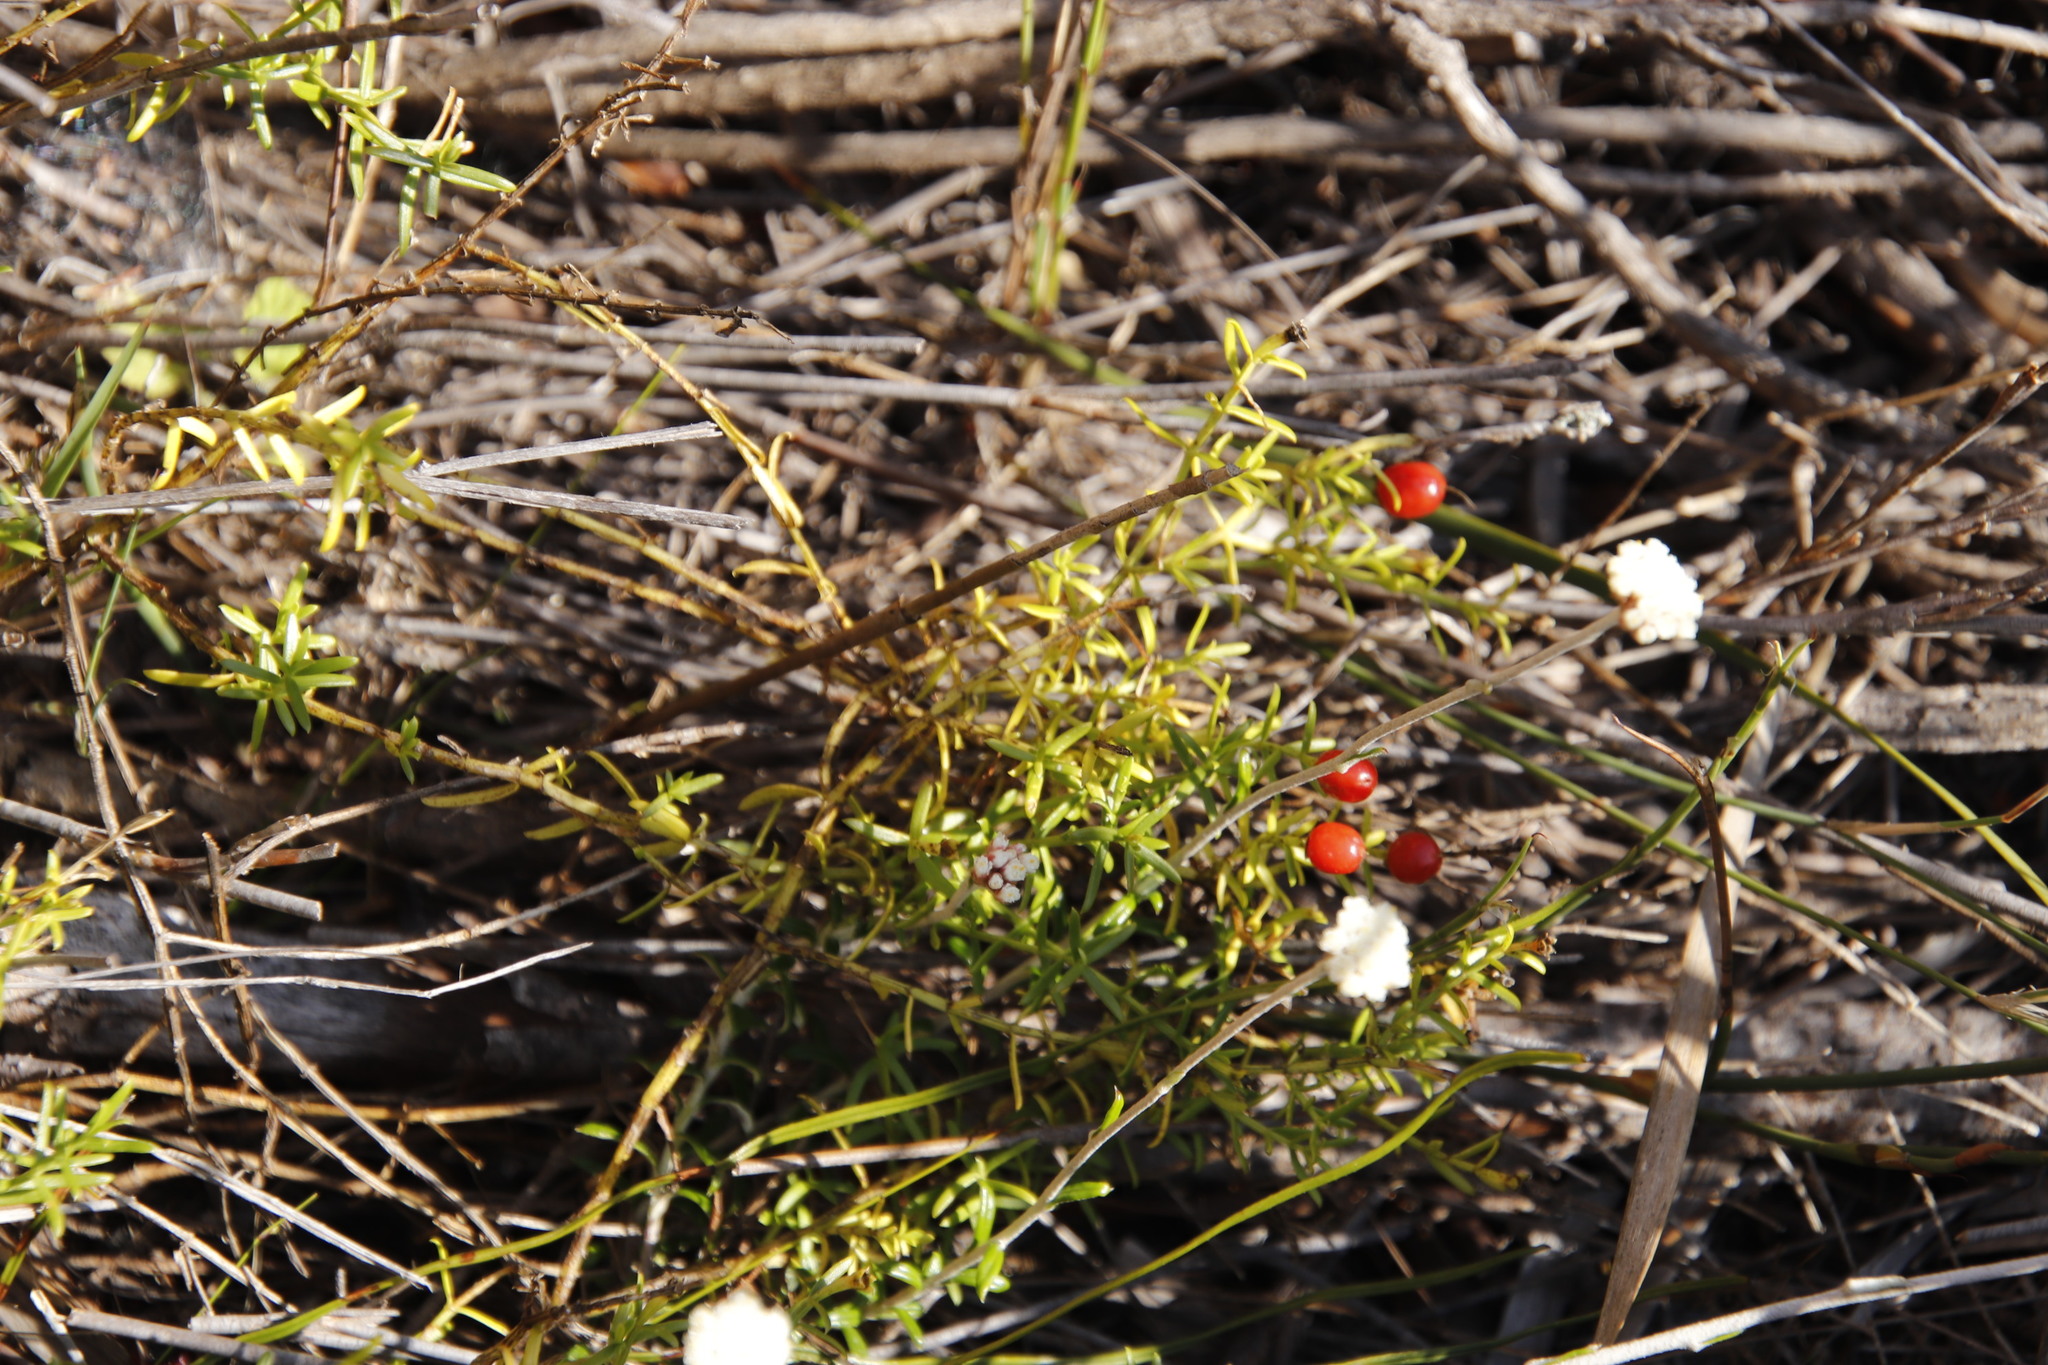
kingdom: Plantae
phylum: Tracheophyta
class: Magnoliopsida
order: Gentianales
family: Gentianaceae
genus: Chironia
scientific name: Chironia baccifera
